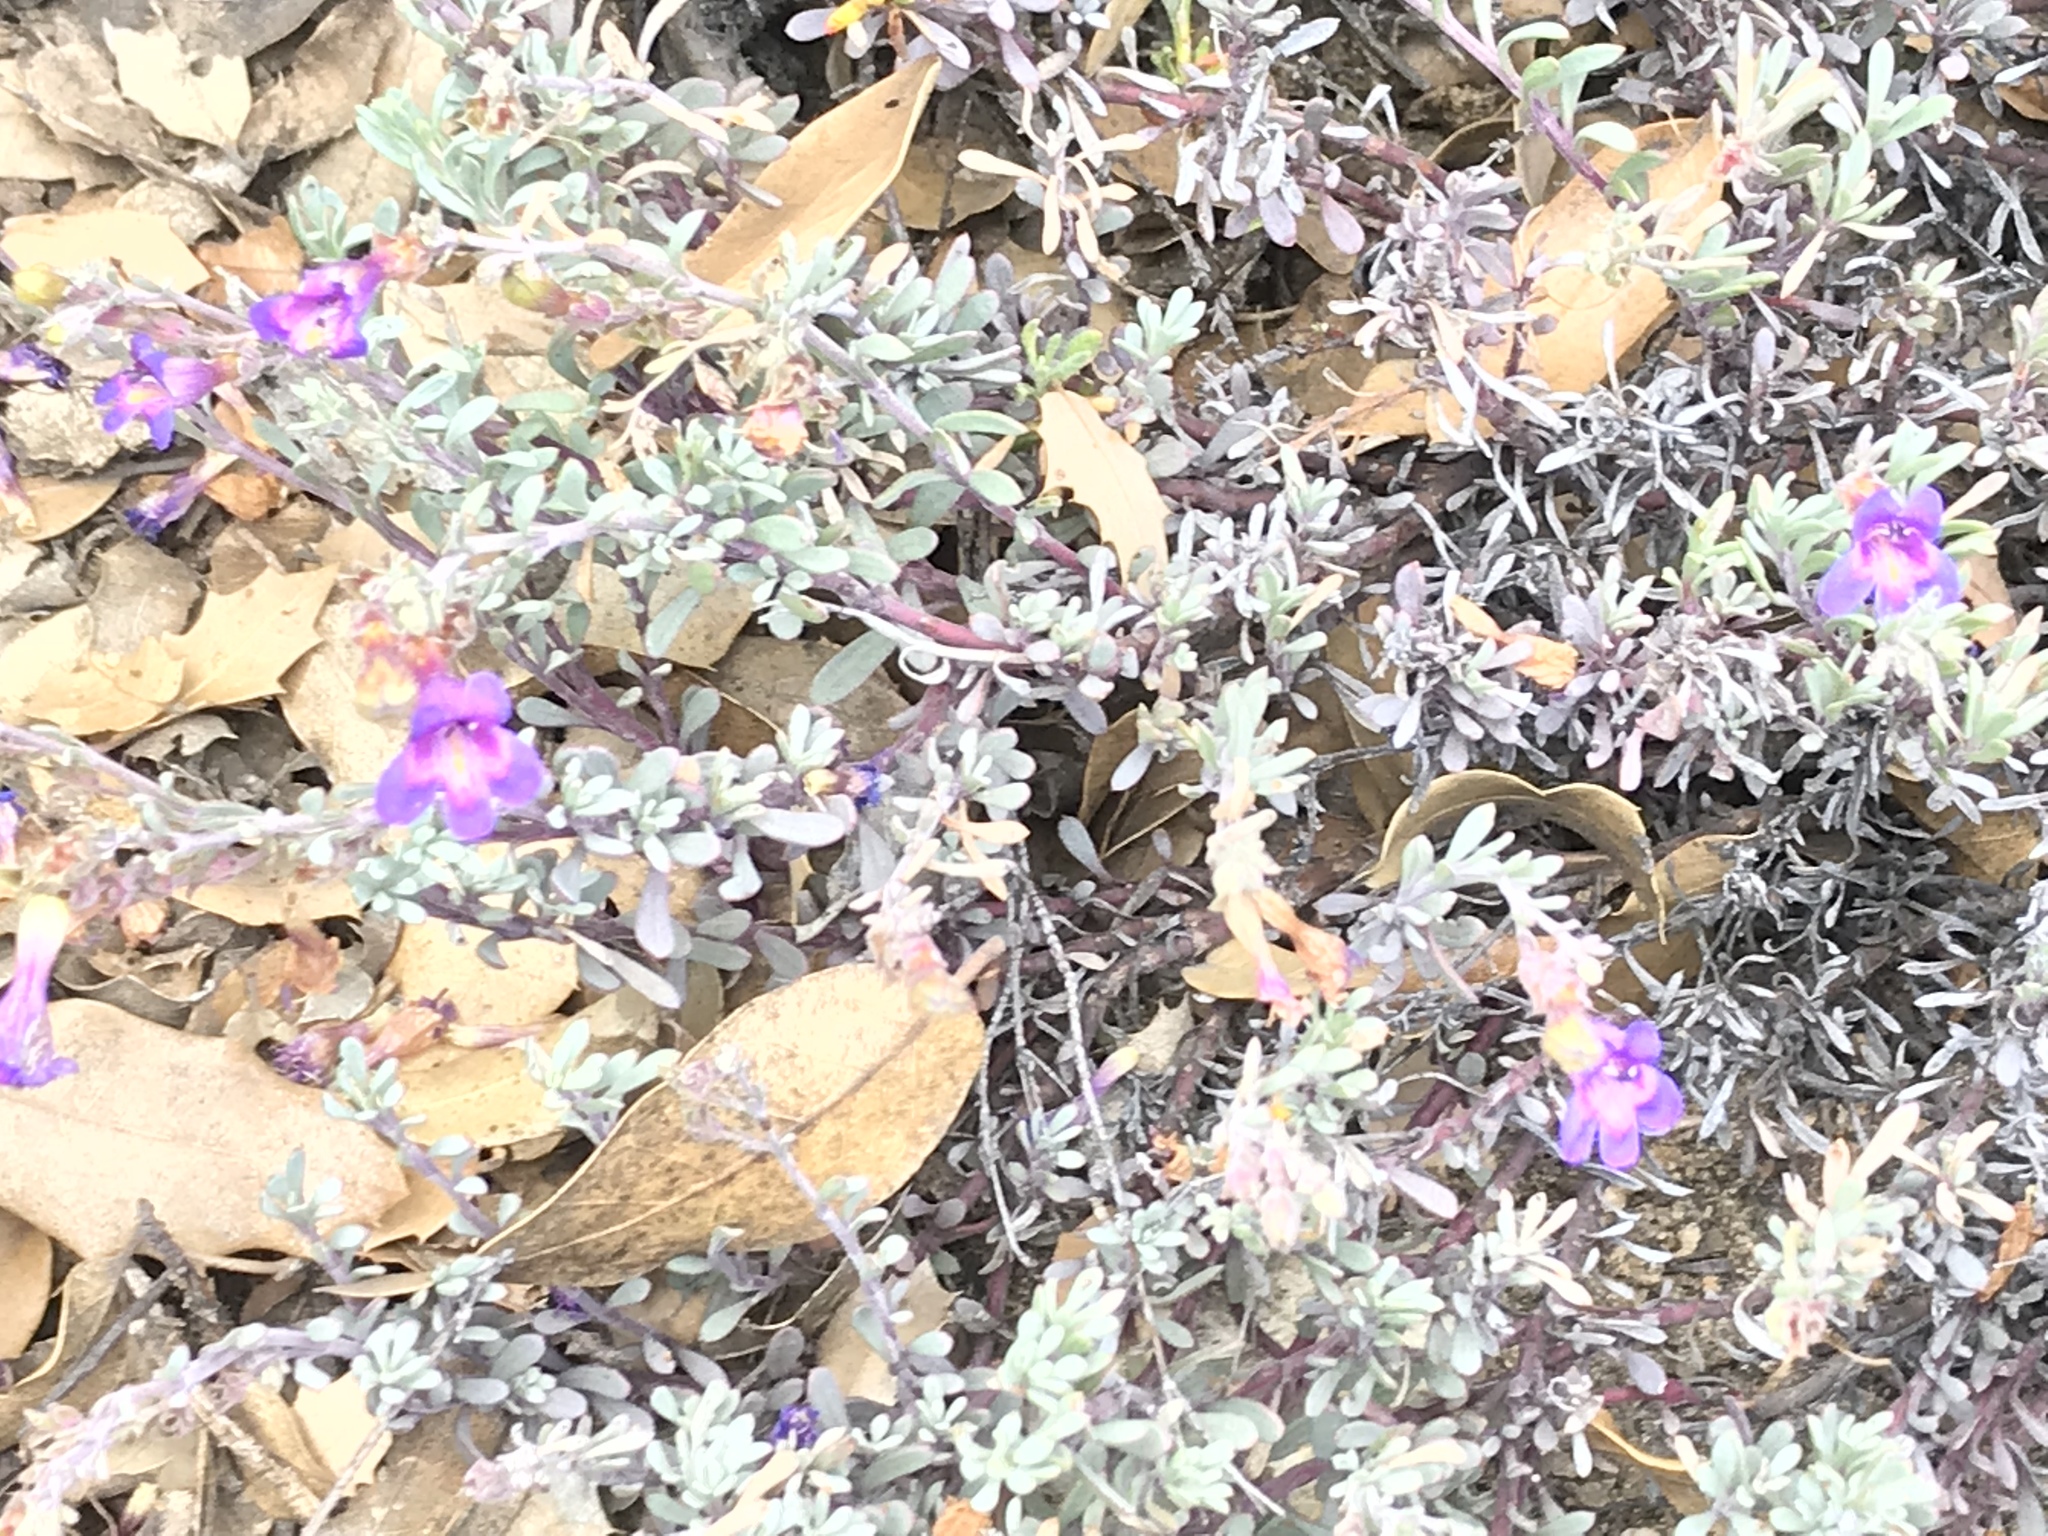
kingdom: Plantae
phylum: Tracheophyta
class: Magnoliopsida
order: Lamiales
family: Plantaginaceae
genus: Penstemon
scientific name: Penstemon californicus
